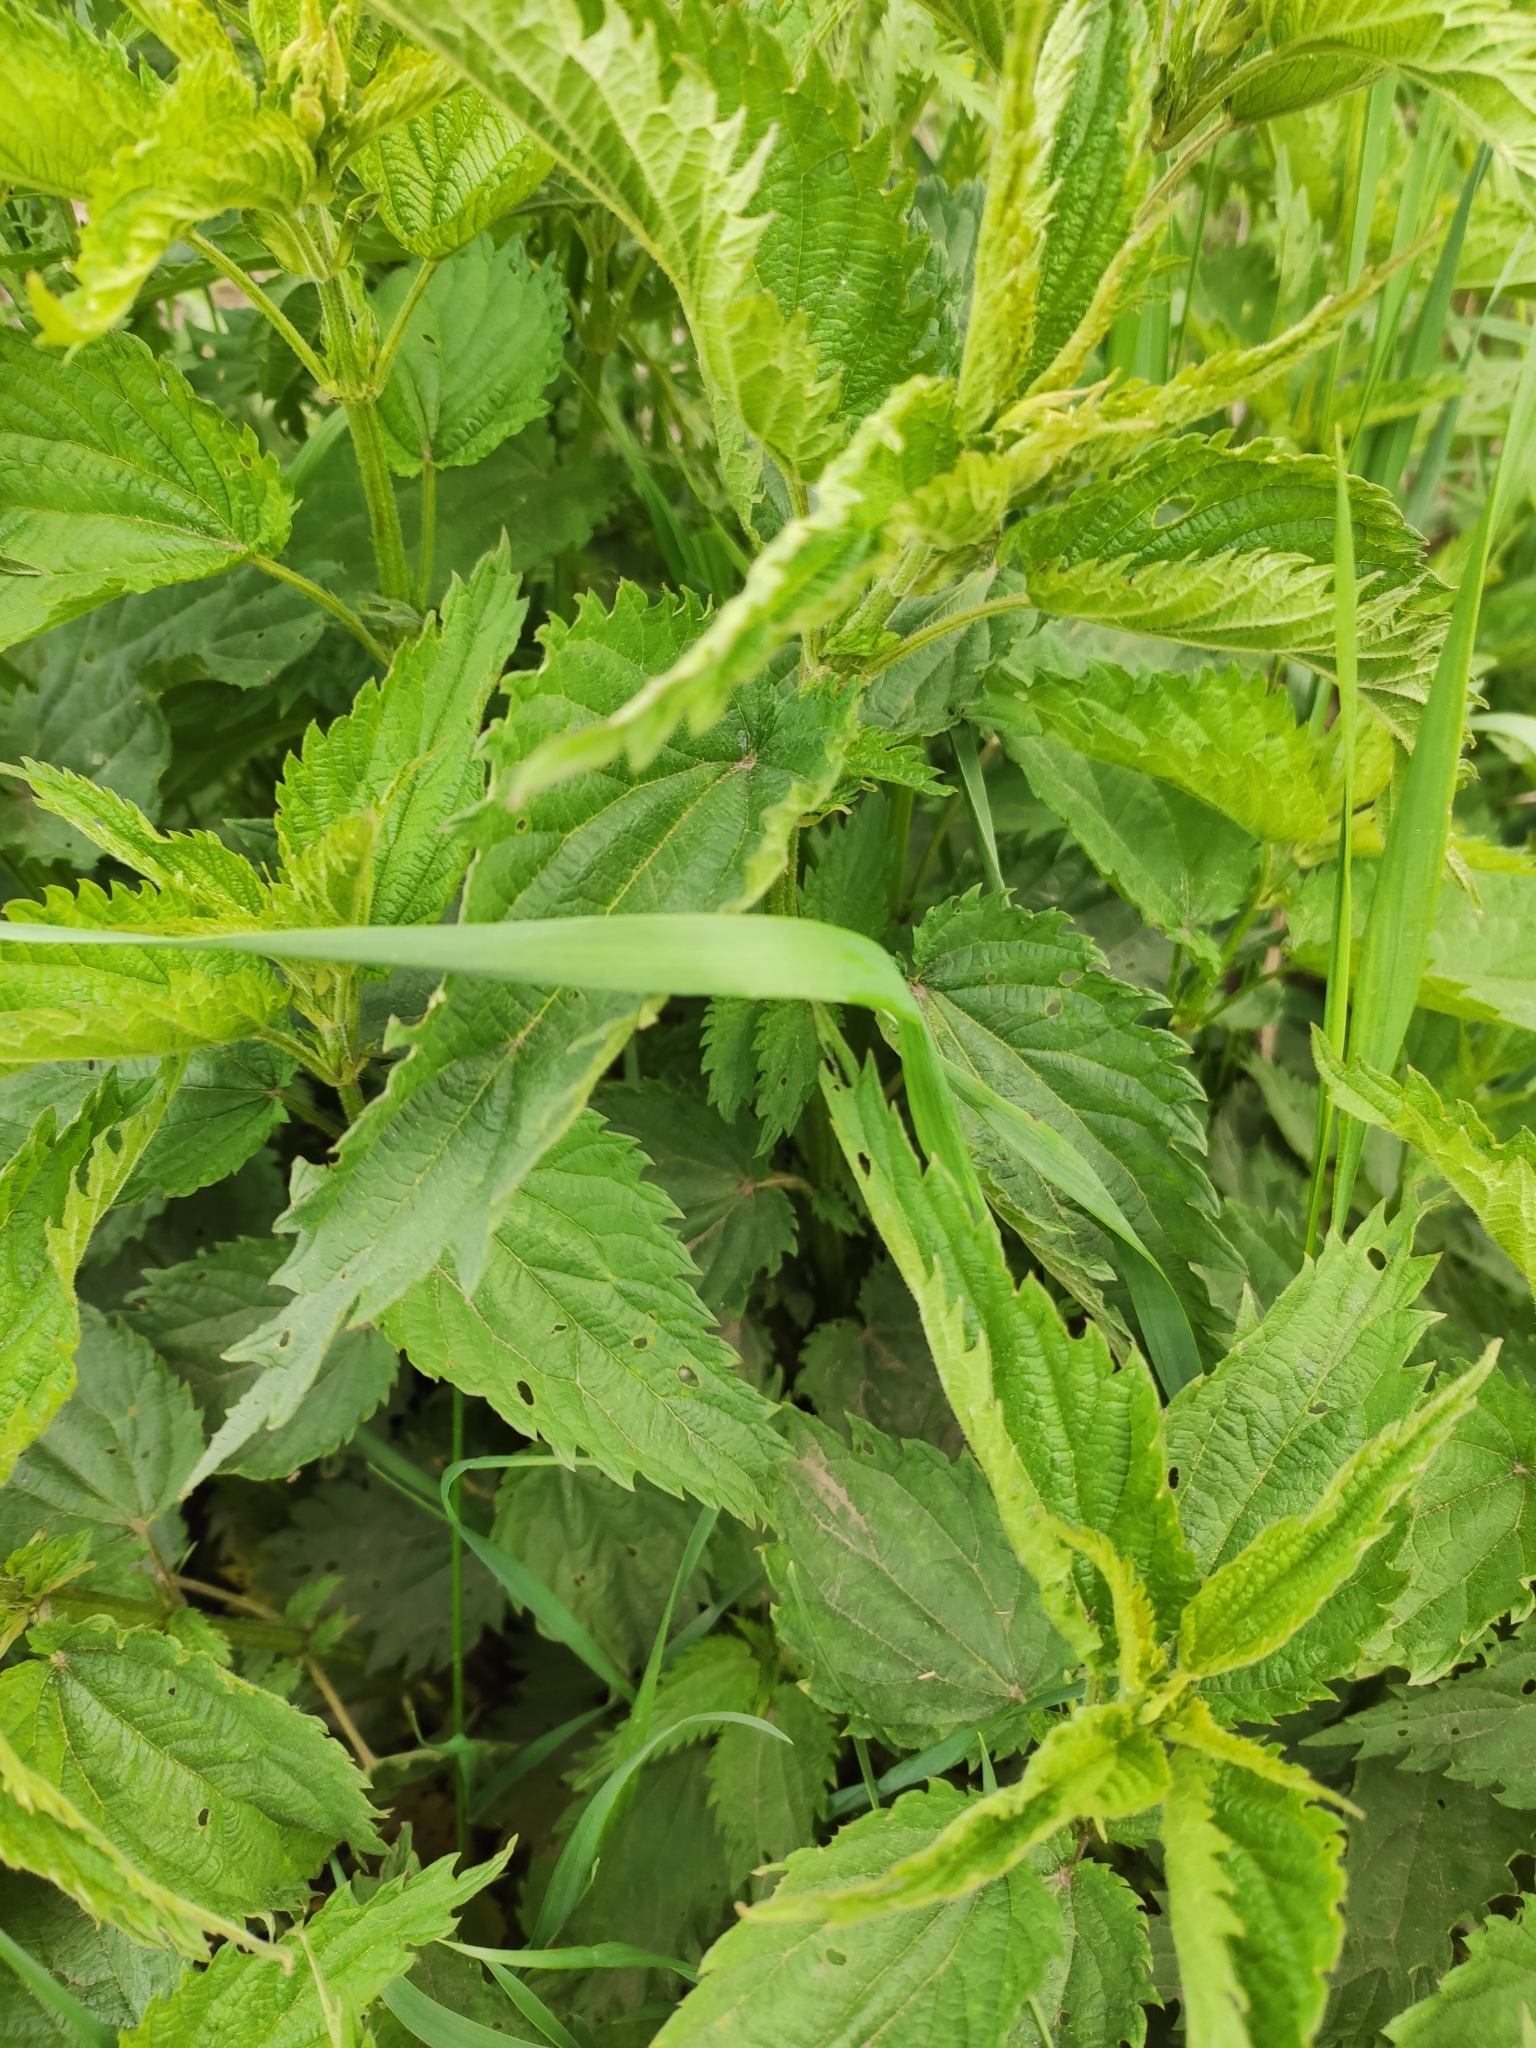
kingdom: Plantae
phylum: Tracheophyta
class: Magnoliopsida
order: Rosales
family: Urticaceae
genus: Urtica
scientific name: Urtica dioica
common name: Common nettle
